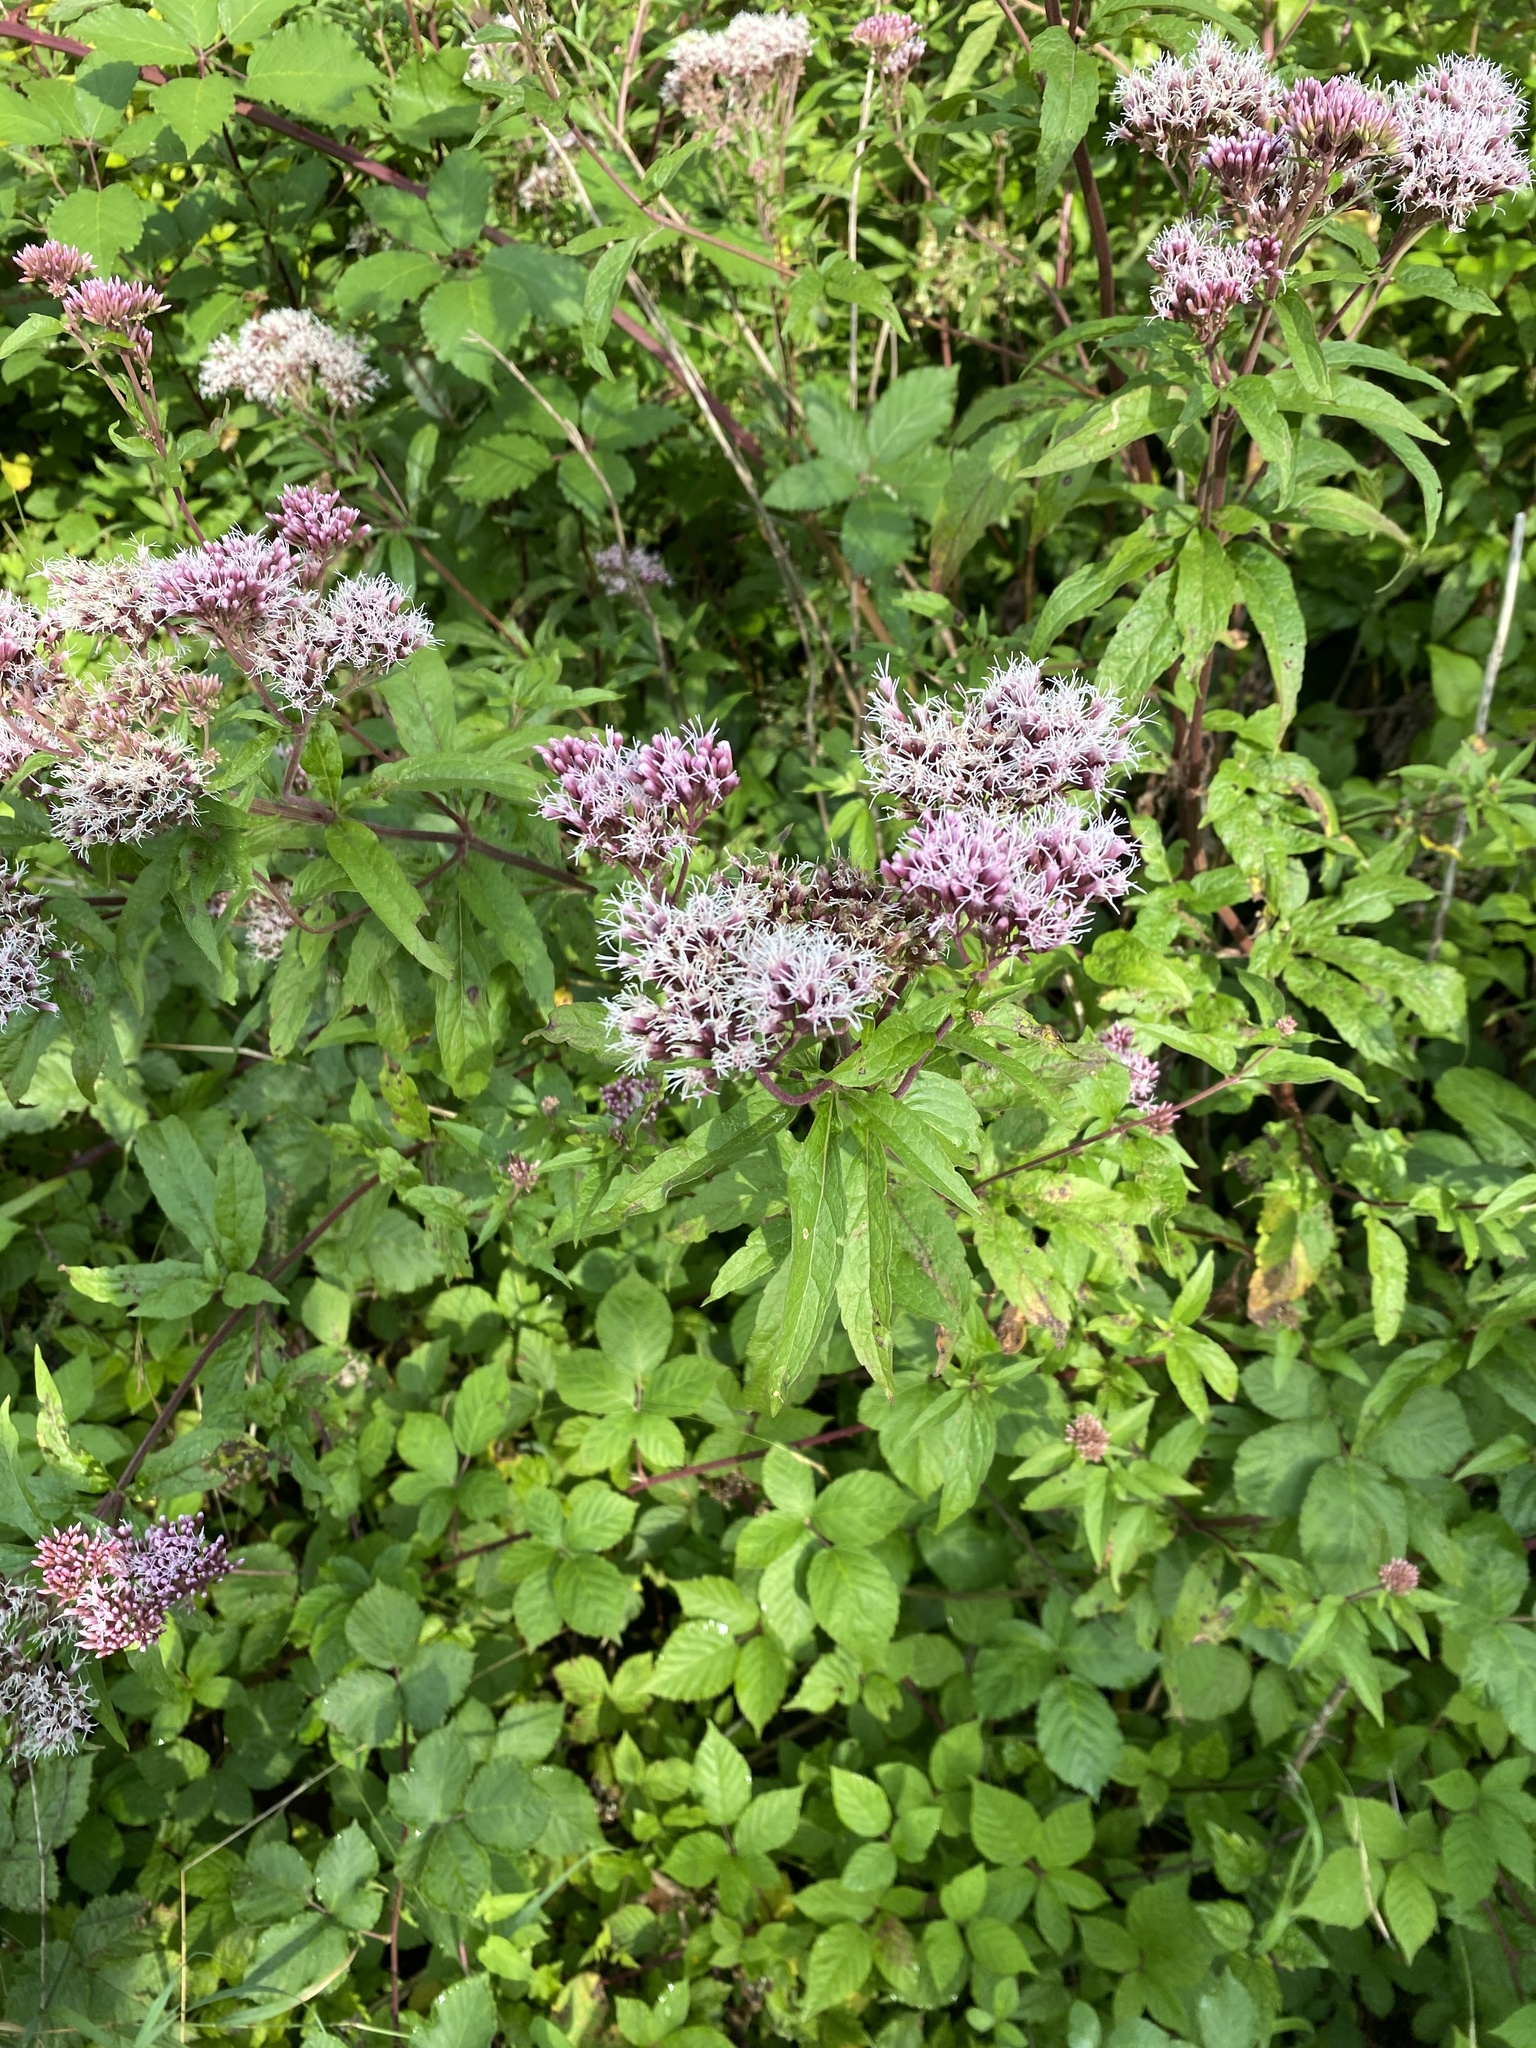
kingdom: Plantae
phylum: Tracheophyta
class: Magnoliopsida
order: Asterales
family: Asteraceae
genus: Eupatorium
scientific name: Eupatorium cannabinum
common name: Hemp-agrimony
